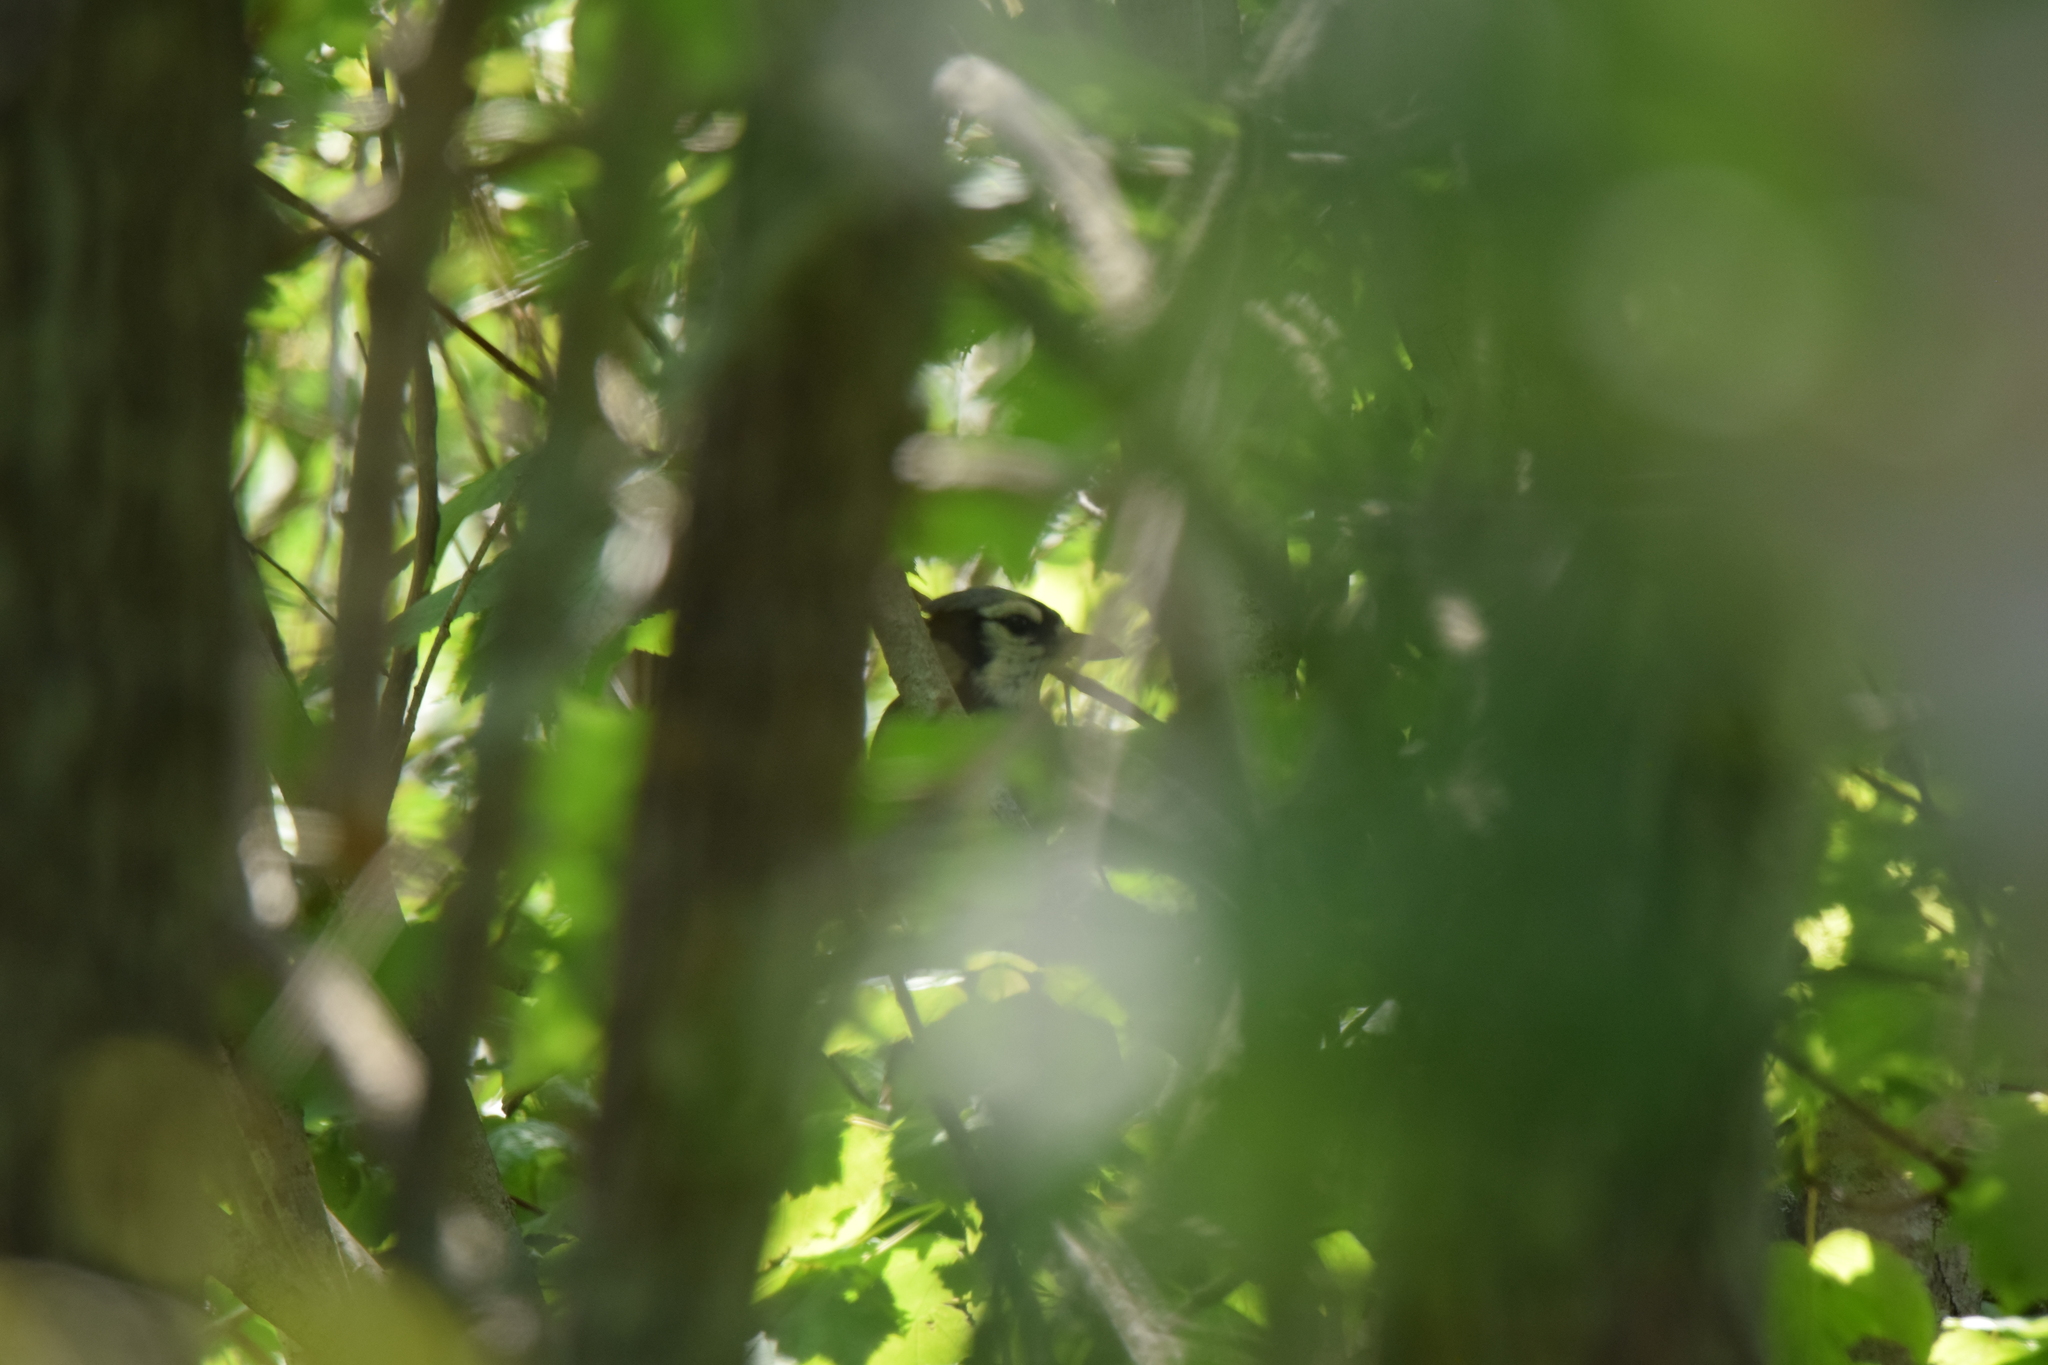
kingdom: Animalia
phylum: Chordata
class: Aves
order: Passeriformes
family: Corvidae
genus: Cyanocitta
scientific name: Cyanocitta cristata
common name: Blue jay
